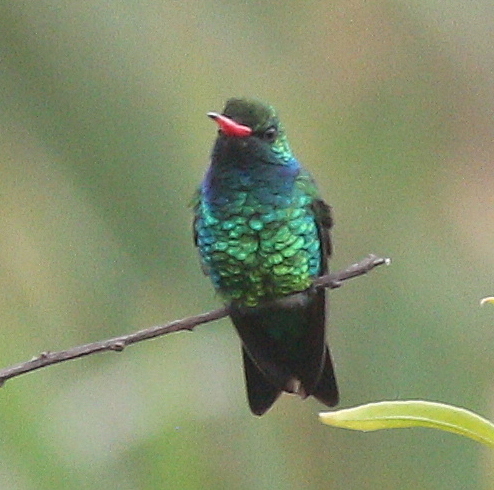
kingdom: Animalia
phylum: Chordata
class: Aves
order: Apodiformes
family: Trochilidae
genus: Chlorostilbon
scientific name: Chlorostilbon lucidus
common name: Glittering-bellied emerald
